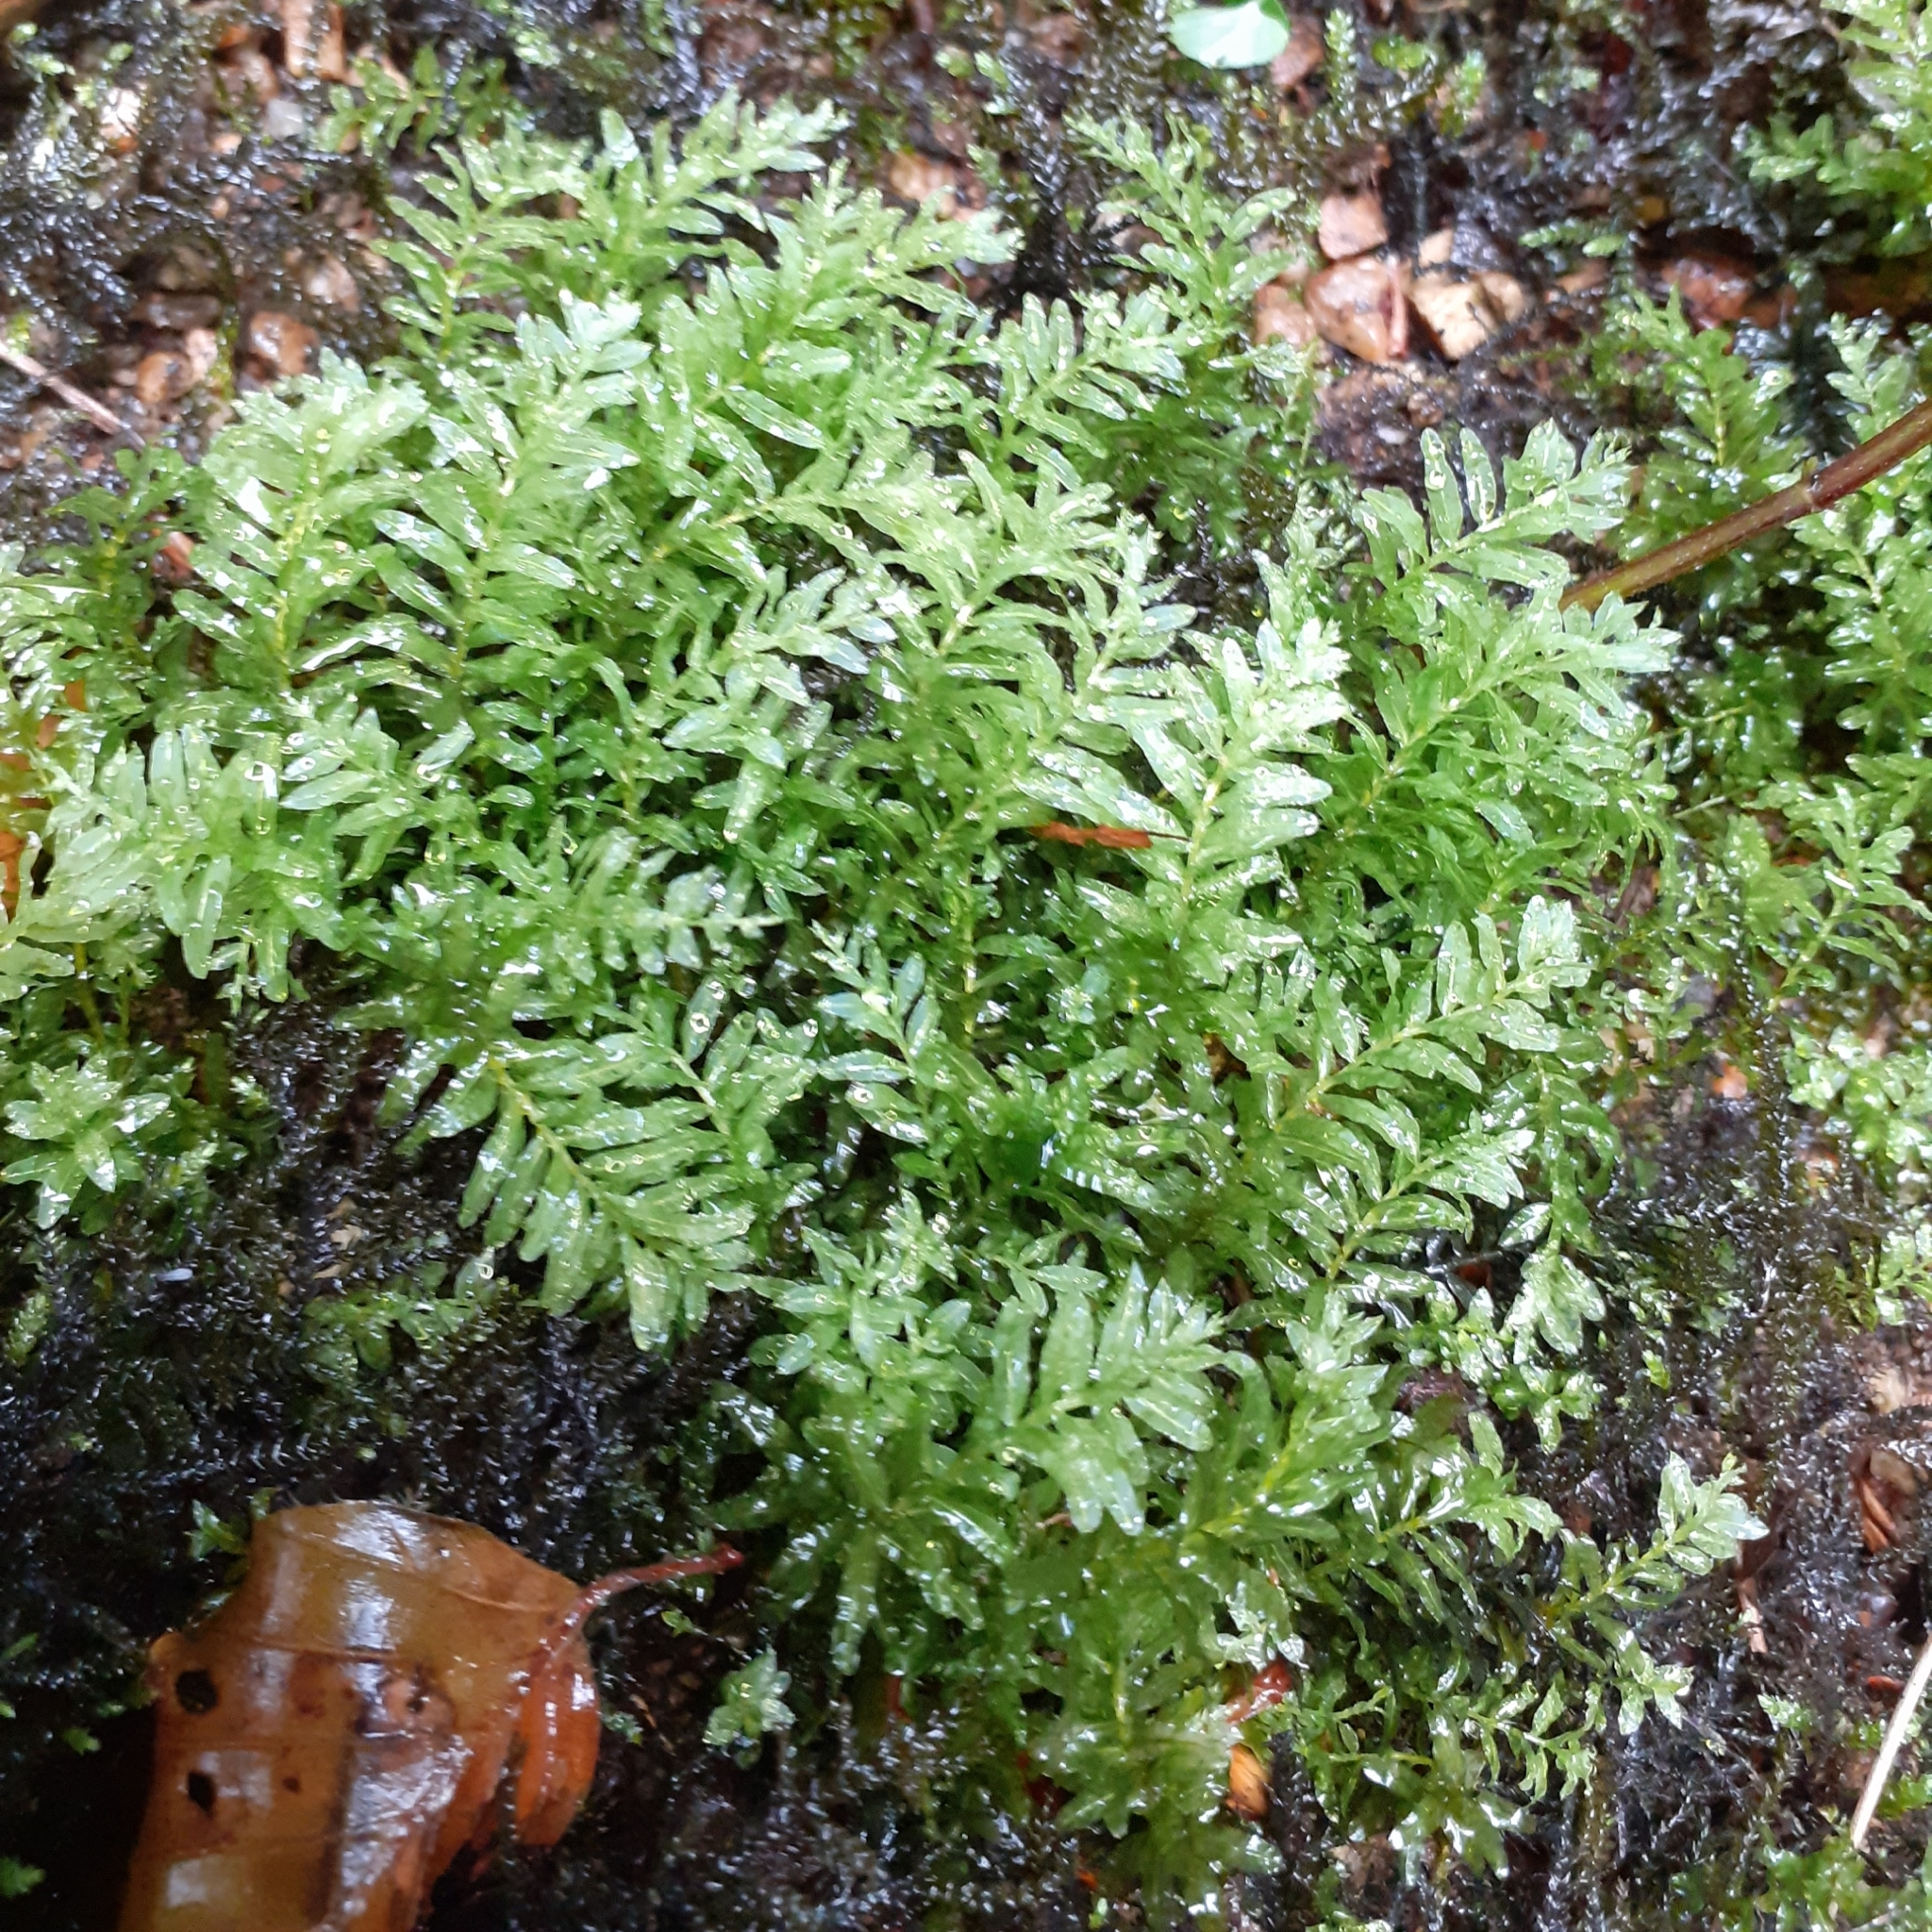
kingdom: Plantae
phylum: Bryophyta
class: Bryopsida
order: Bryales
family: Mniaceae
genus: Plagiomnium
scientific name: Plagiomnium undulatum
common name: Hart's-tongue thyme-moss
